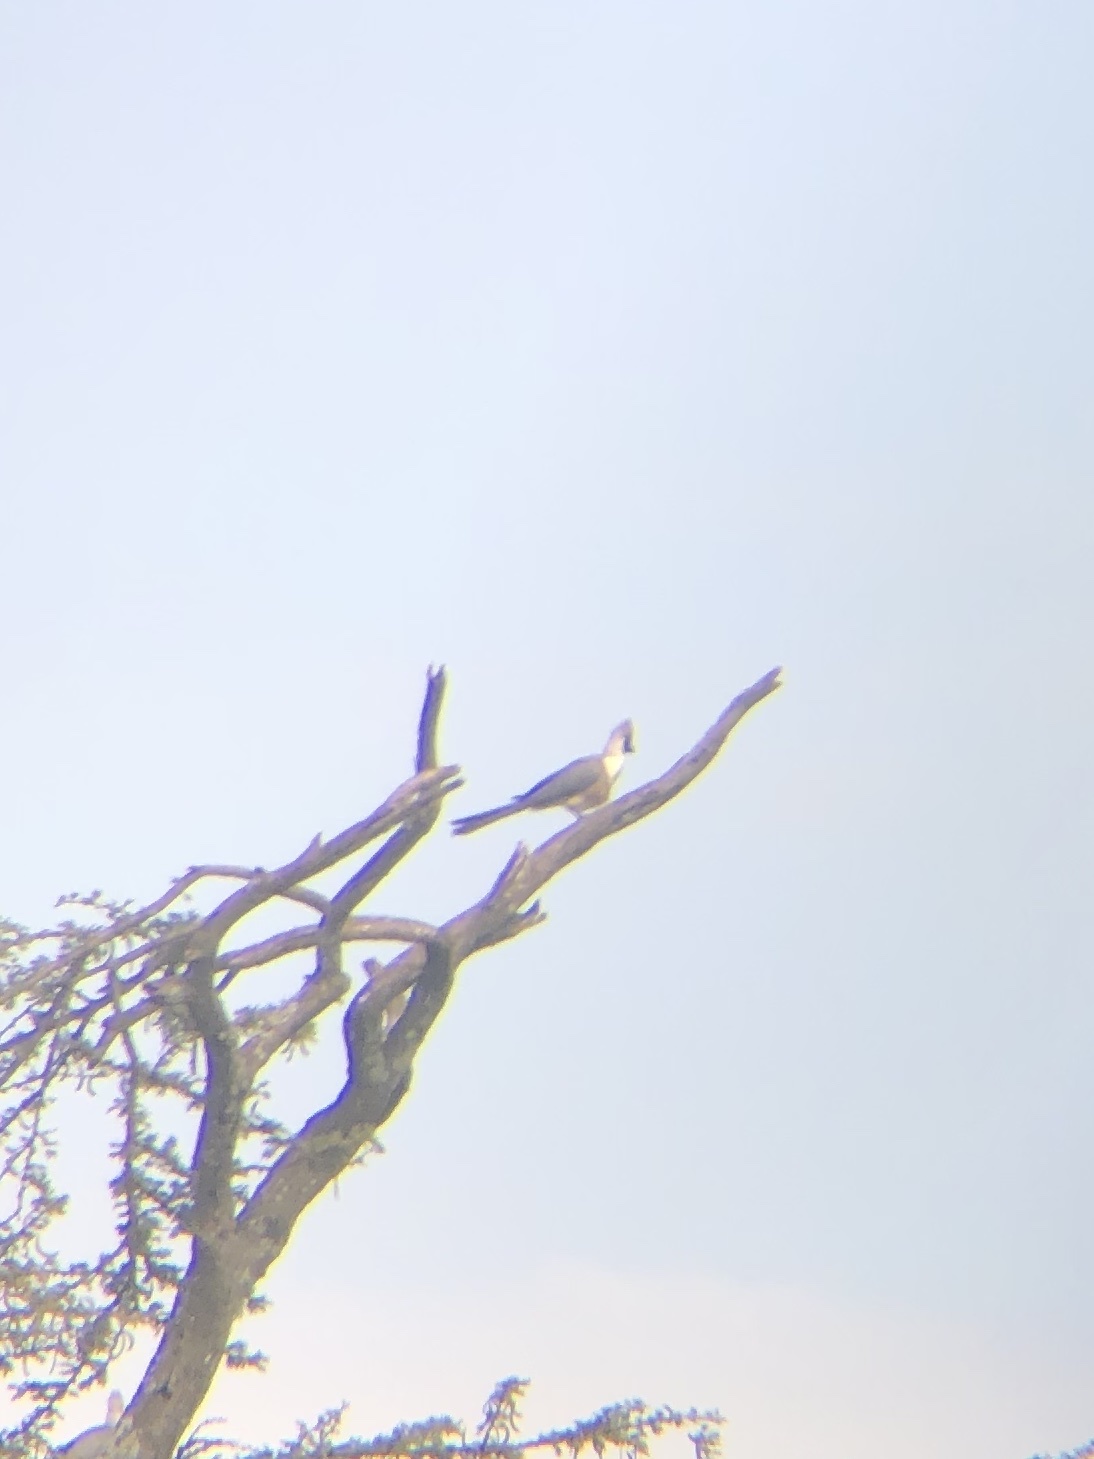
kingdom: Animalia
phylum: Chordata
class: Aves
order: Musophagiformes
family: Musophagidae
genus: Corythaixoides
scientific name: Corythaixoides personatus
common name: Bare-faced go-away-bird
